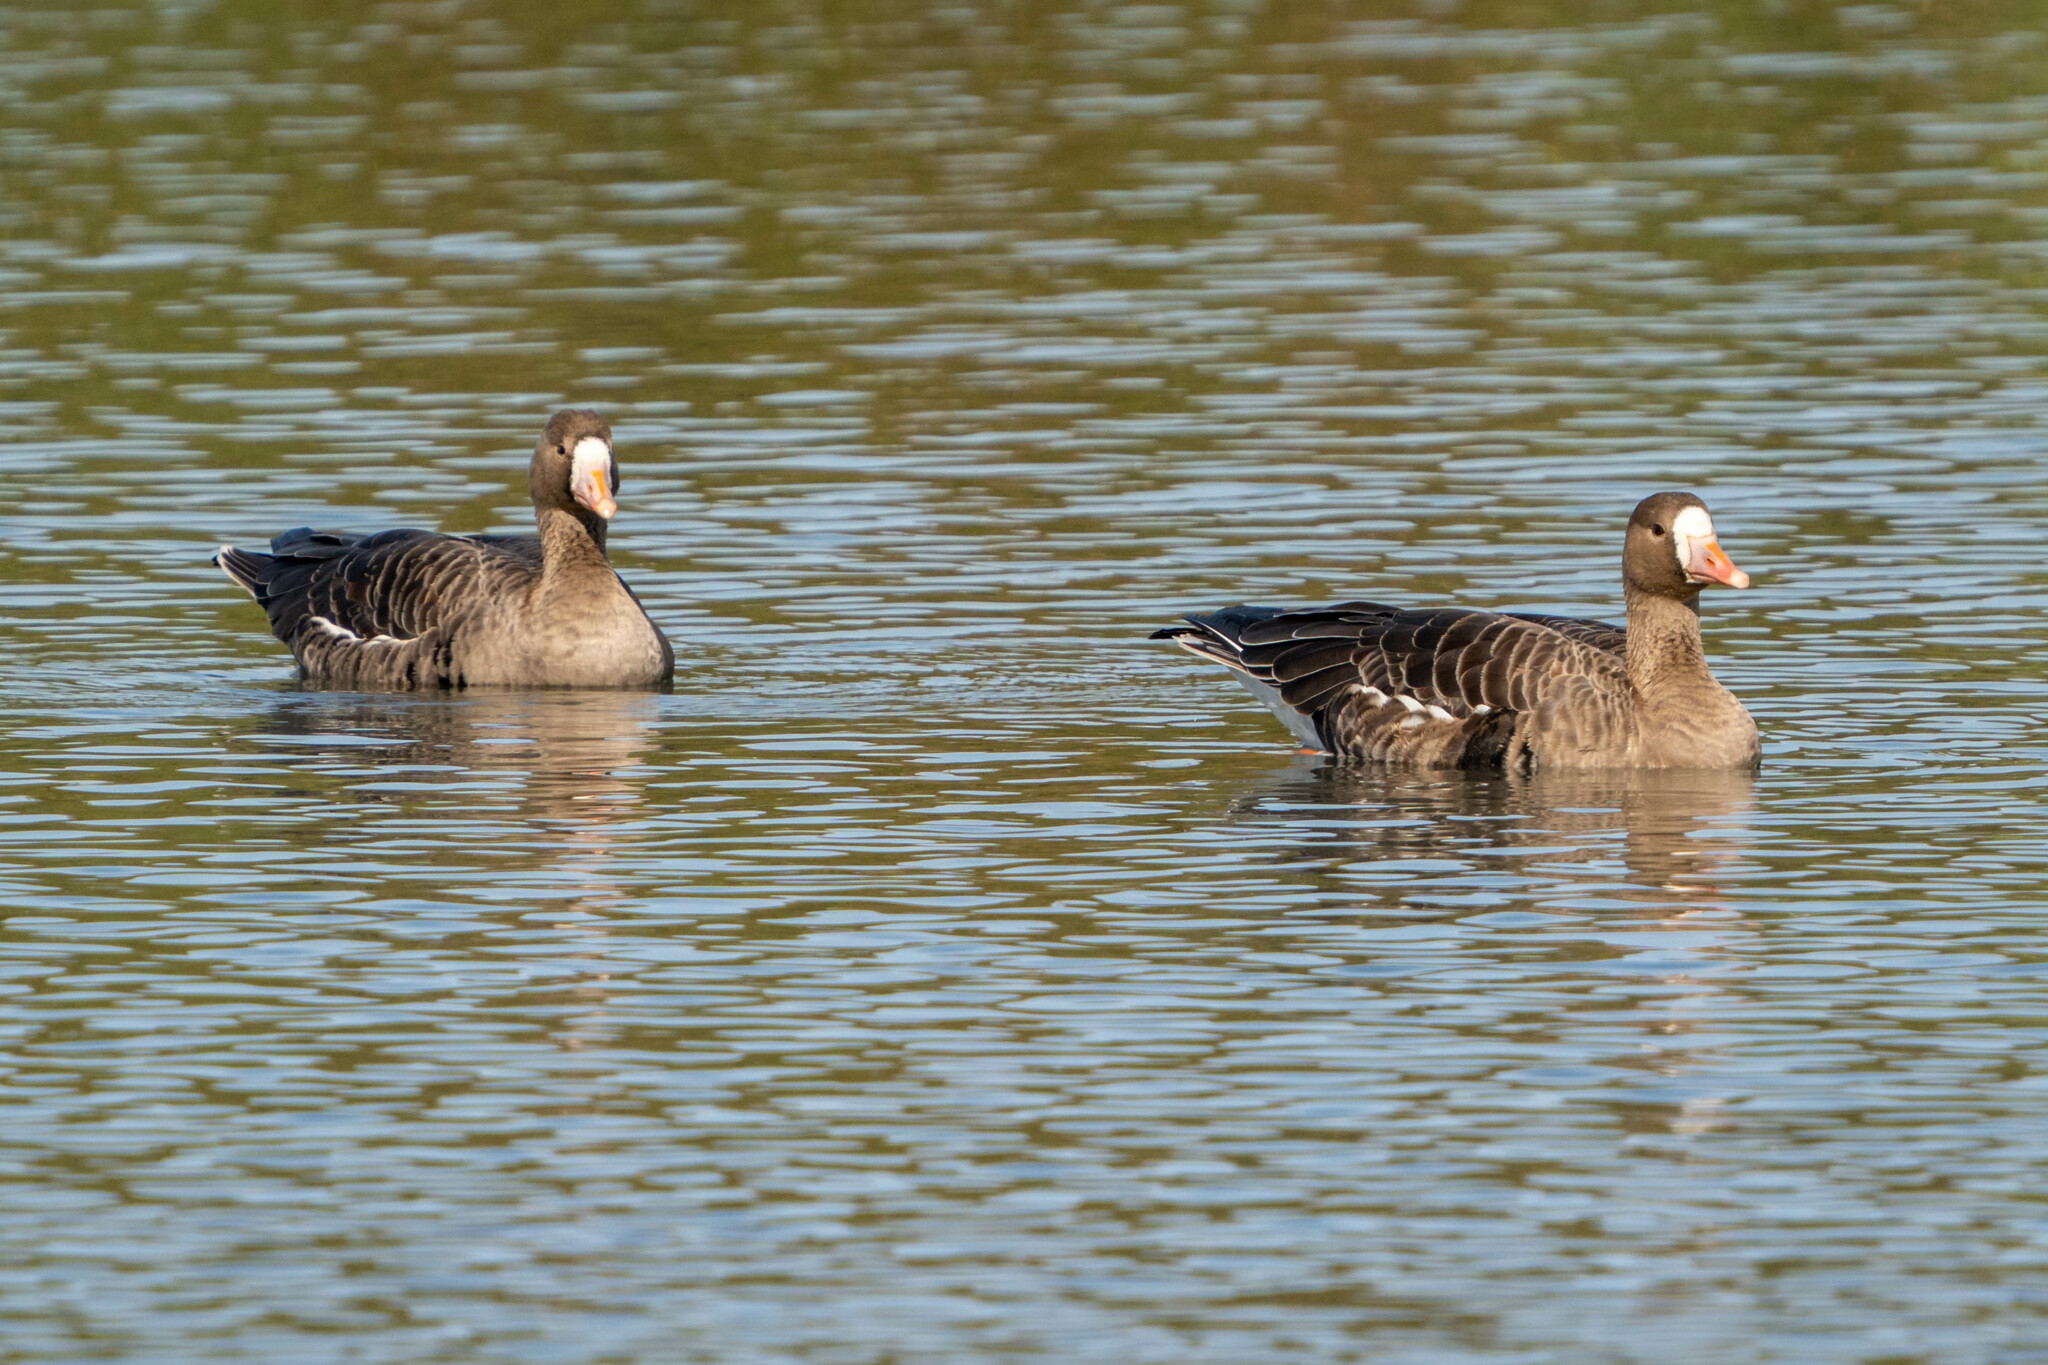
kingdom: Animalia
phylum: Chordata
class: Aves
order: Anseriformes
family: Anatidae
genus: Anser
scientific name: Anser albifrons
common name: Greater white-fronted goose
